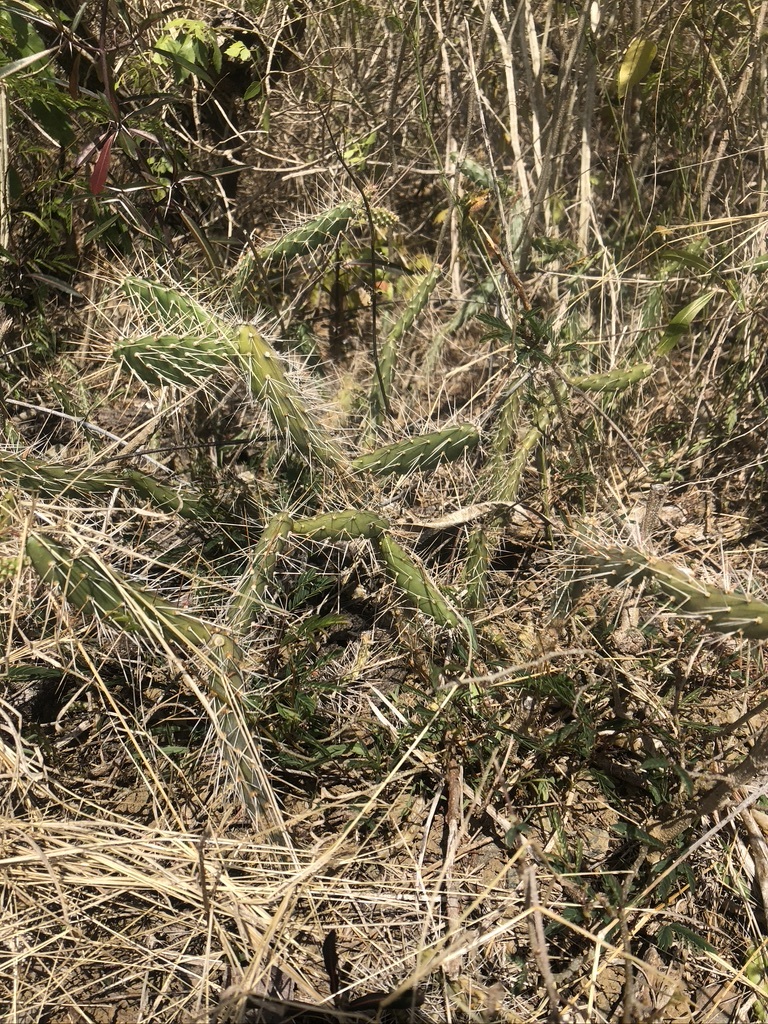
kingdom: Plantae
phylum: Tracheophyta
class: Magnoliopsida
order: Caryophyllales
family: Cactaceae
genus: Opuntia
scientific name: Opuntia repens
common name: Roving pricklypear
